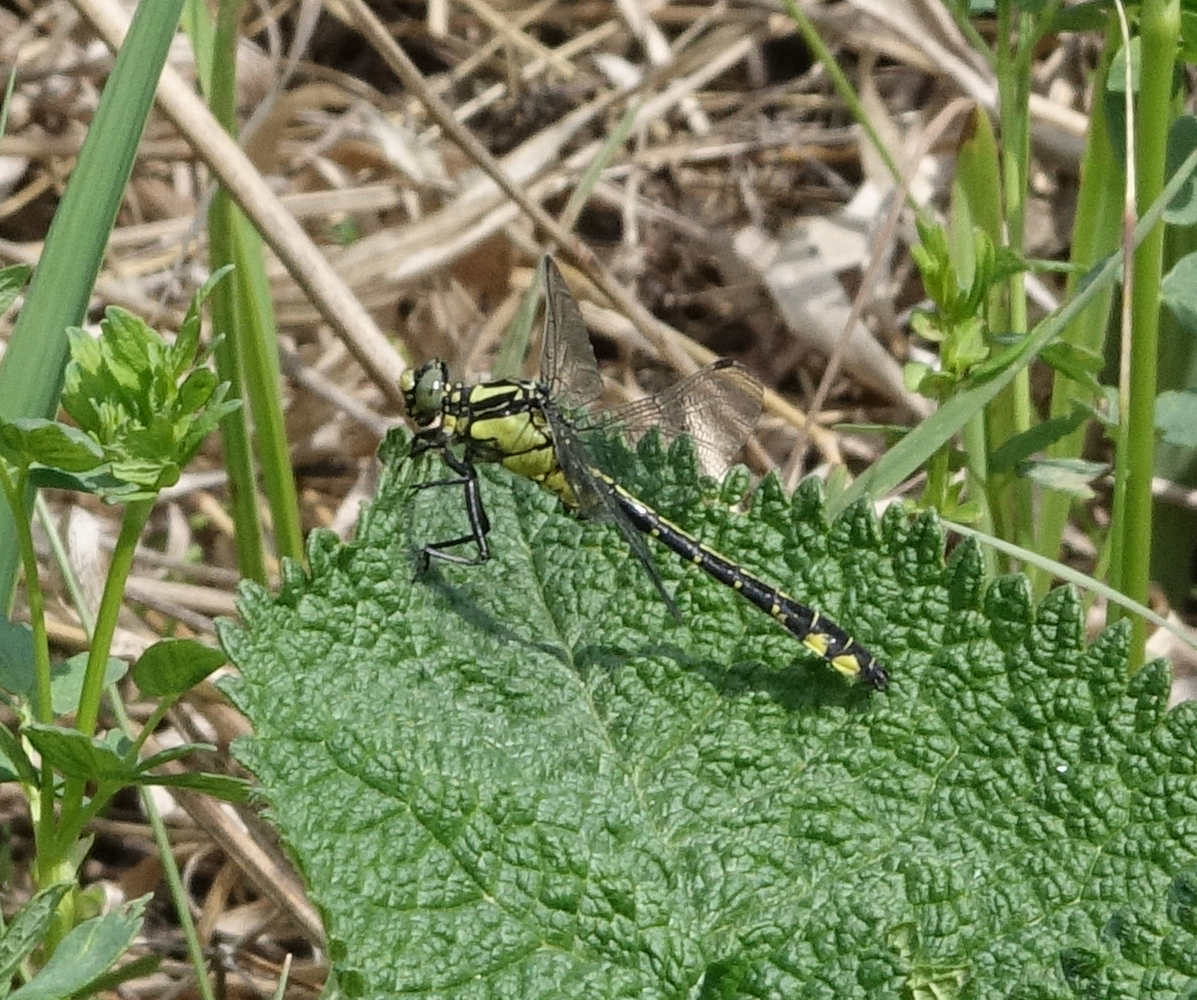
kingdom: Animalia
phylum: Arthropoda
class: Insecta
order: Odonata
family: Gomphidae
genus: Gomphus
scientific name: Gomphus vulgatissimus
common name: Club-tailed dragonfly
